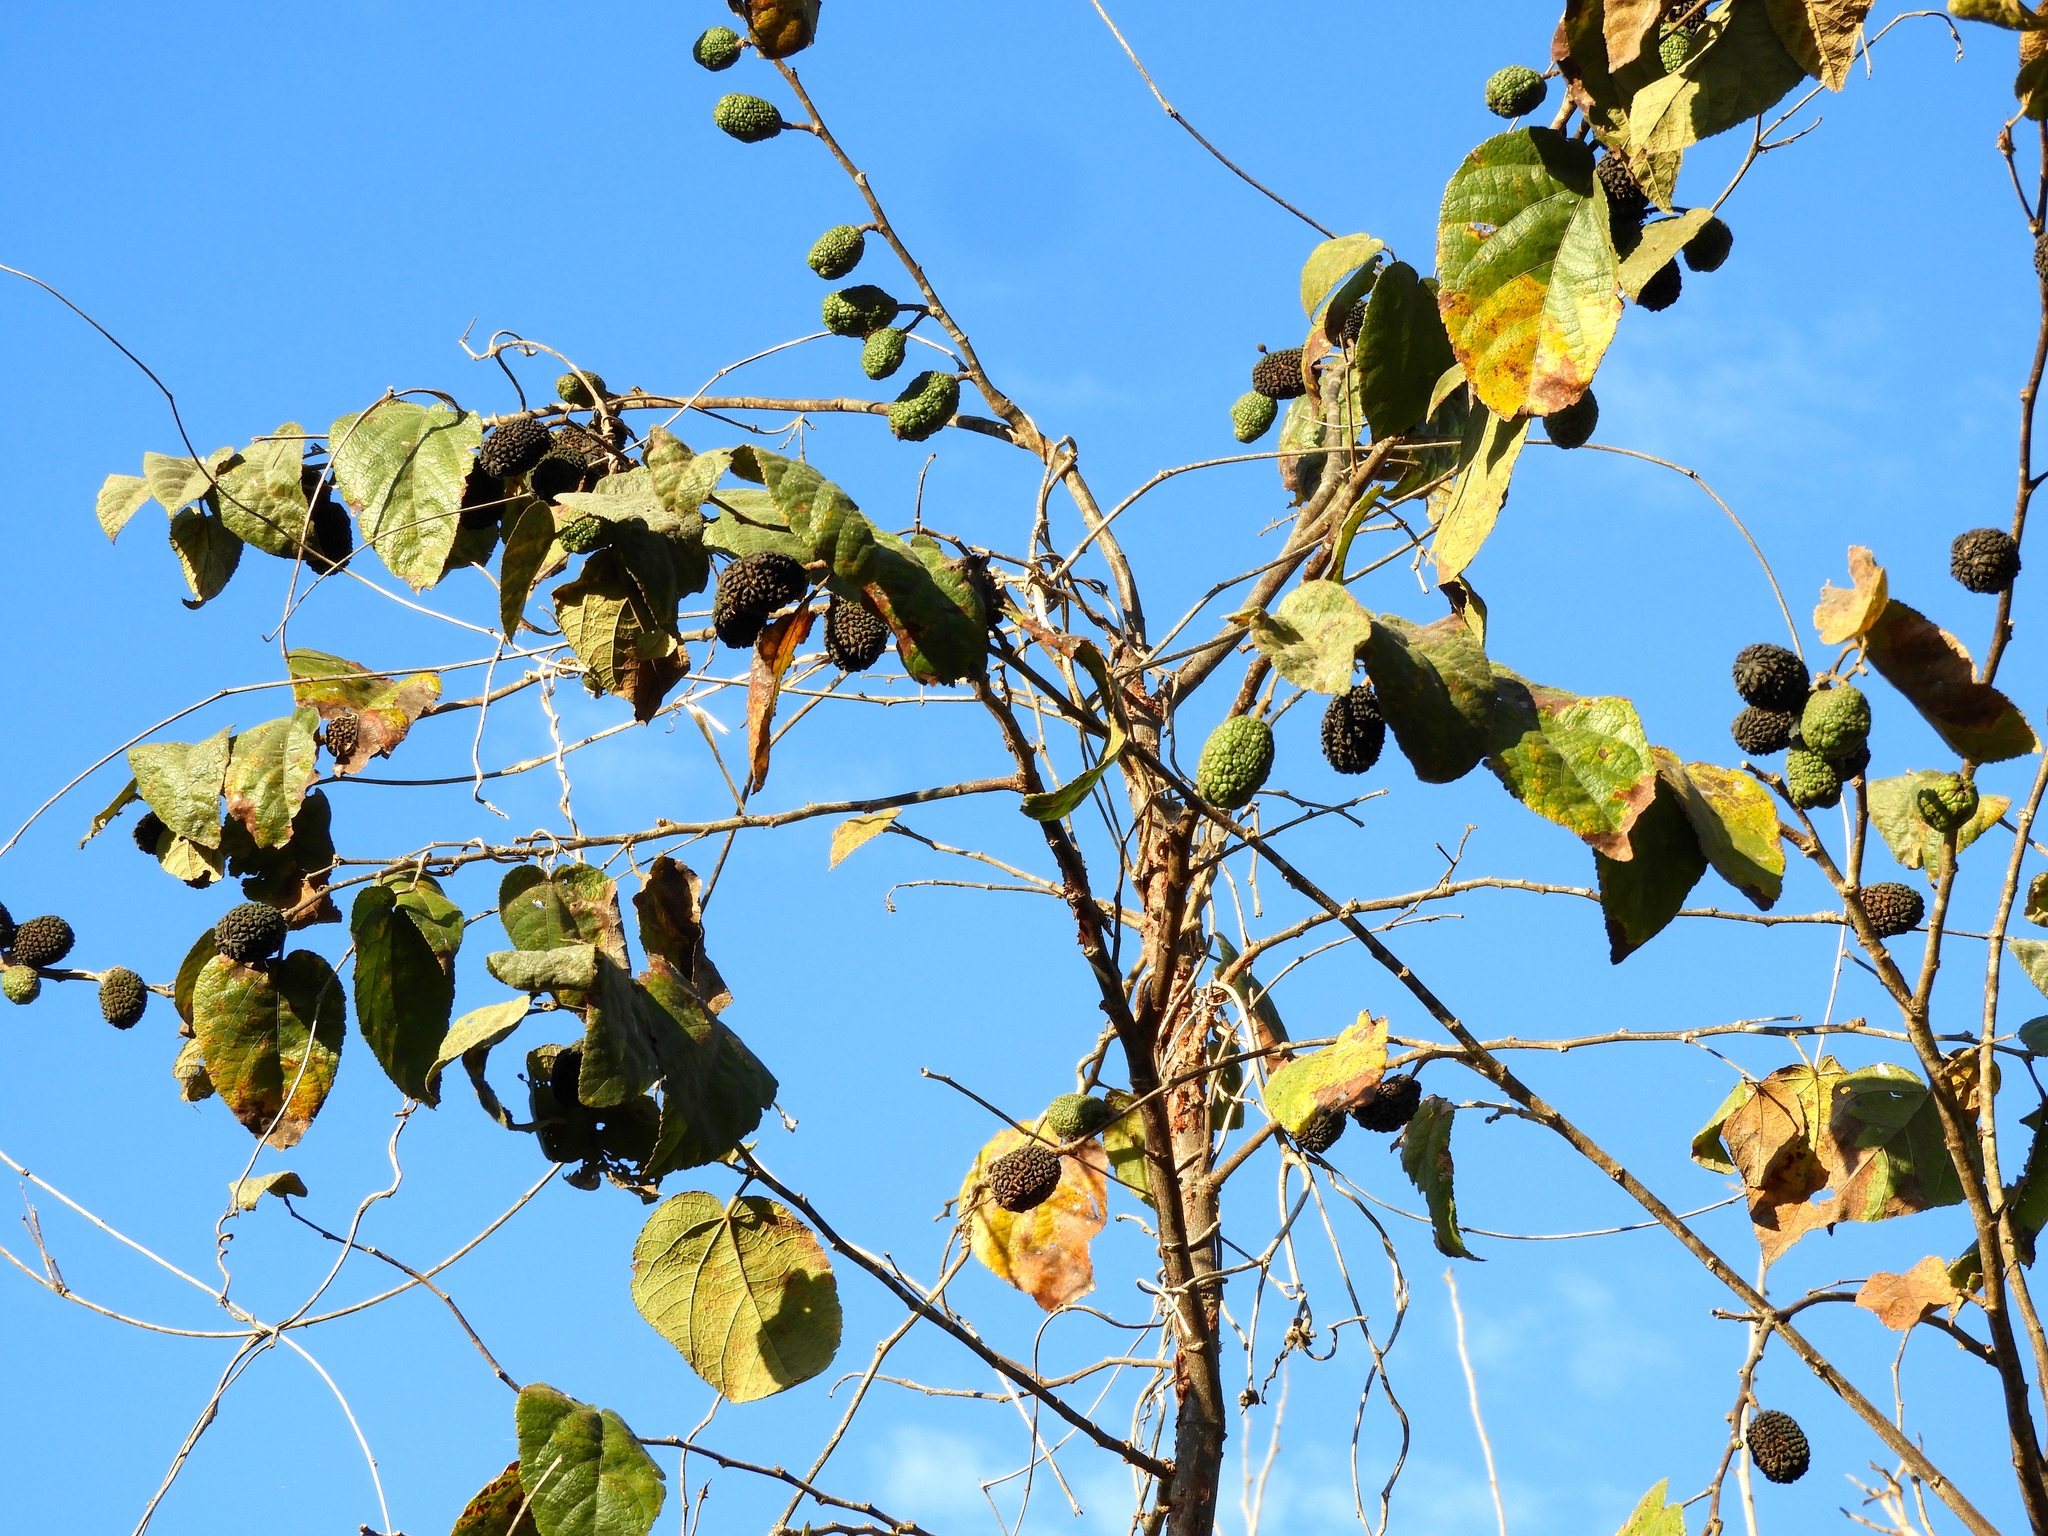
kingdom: Plantae
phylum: Tracheophyta
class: Magnoliopsida
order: Malvales
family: Malvaceae
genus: Guazuma
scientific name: Guazuma ulmifolia
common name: Bastard-cedar
